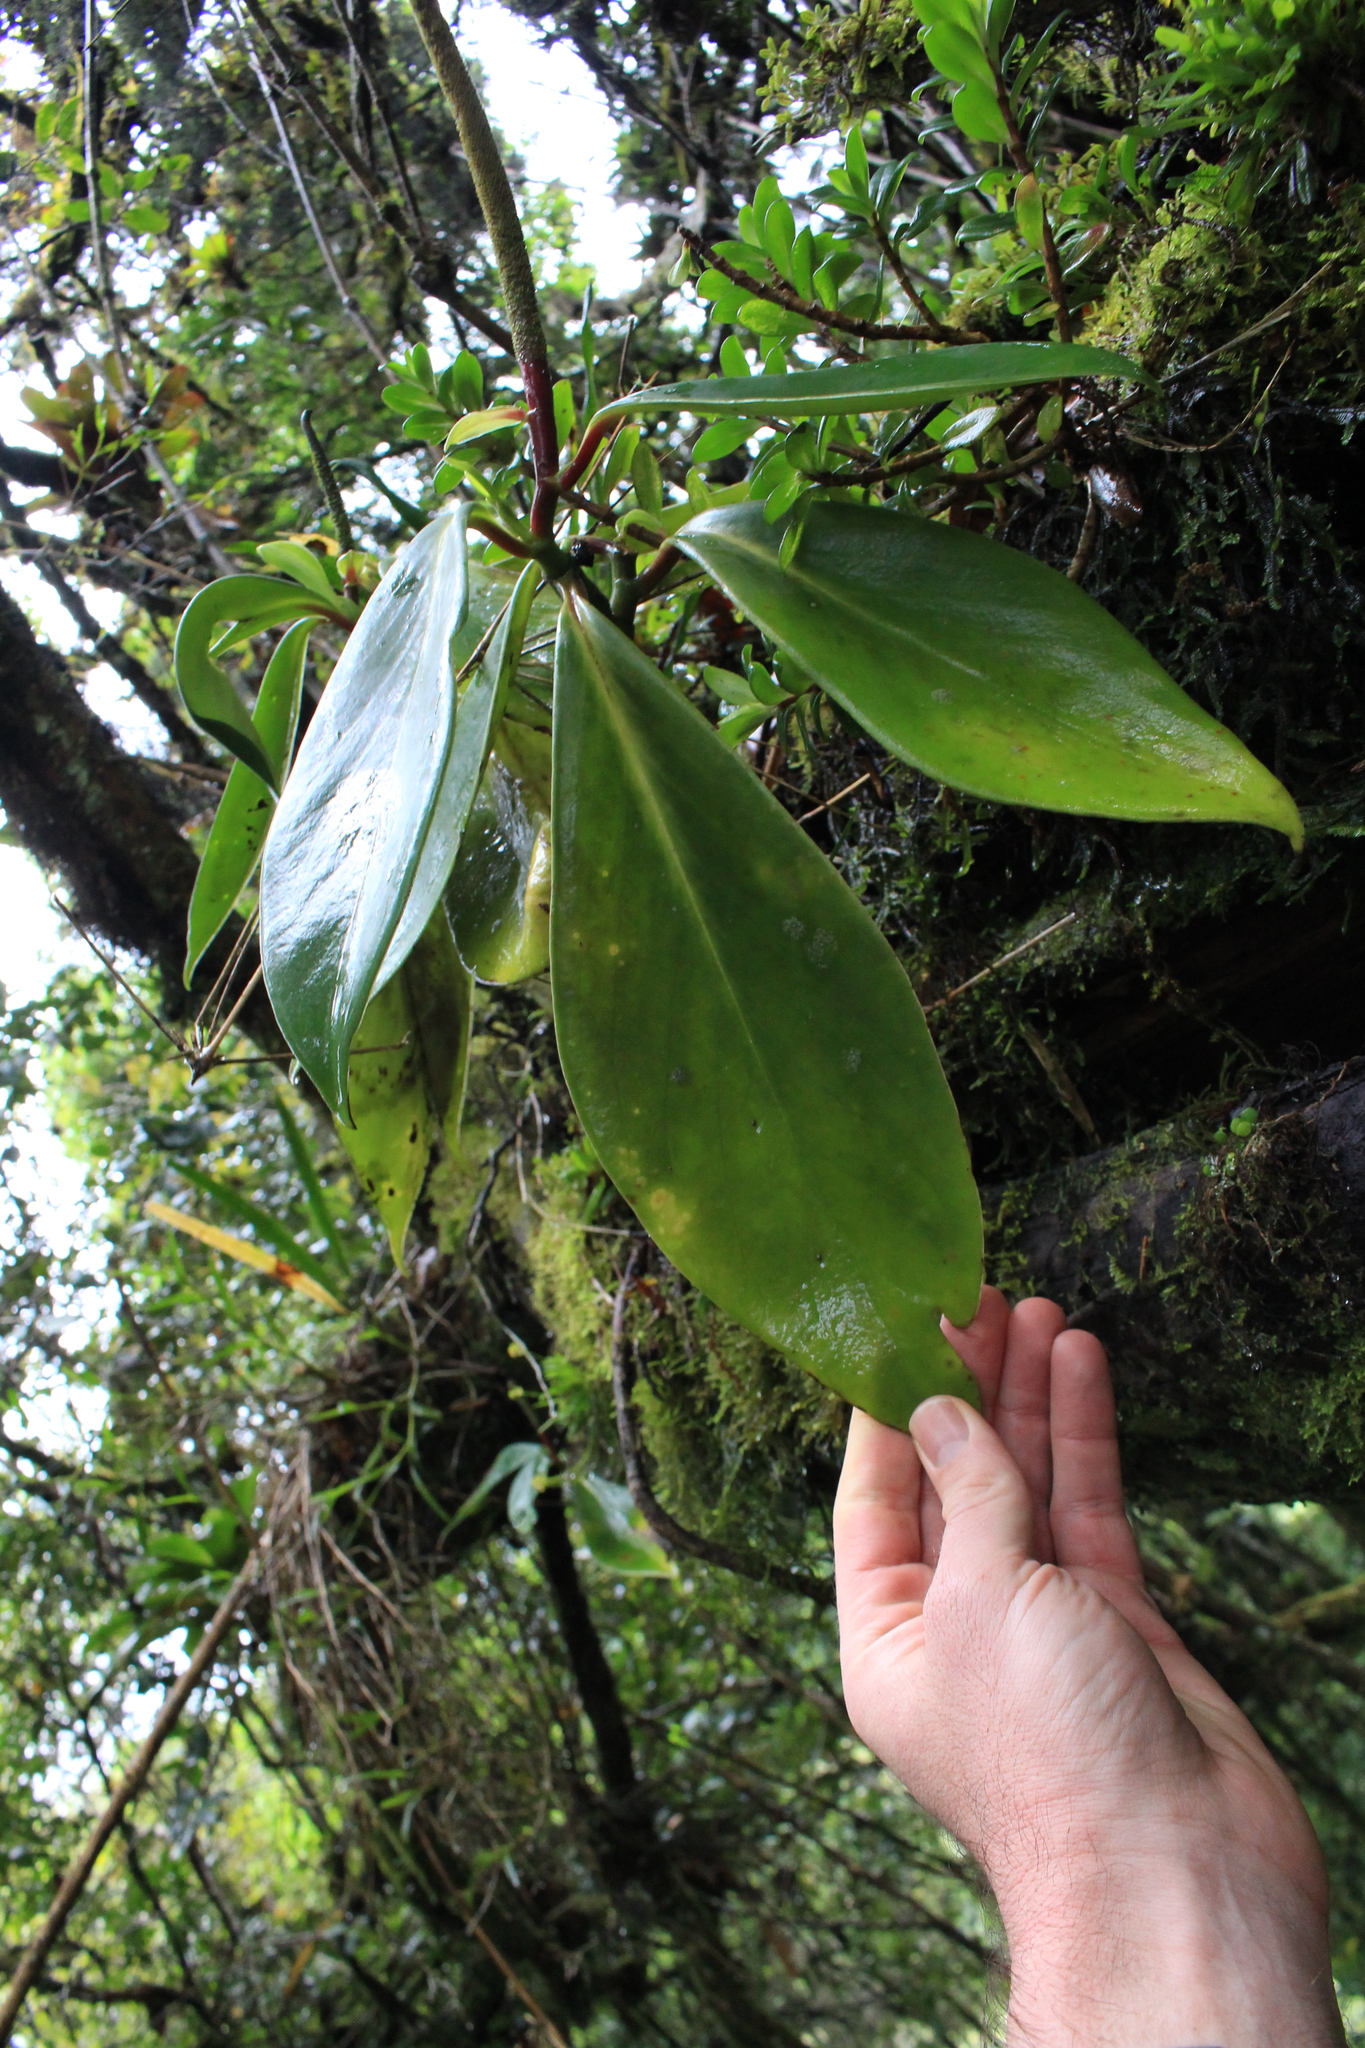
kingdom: Plantae
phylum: Tracheophyta
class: Magnoliopsida
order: Piperales
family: Piperaceae
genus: Peperomia
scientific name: Peperomia adscendens
